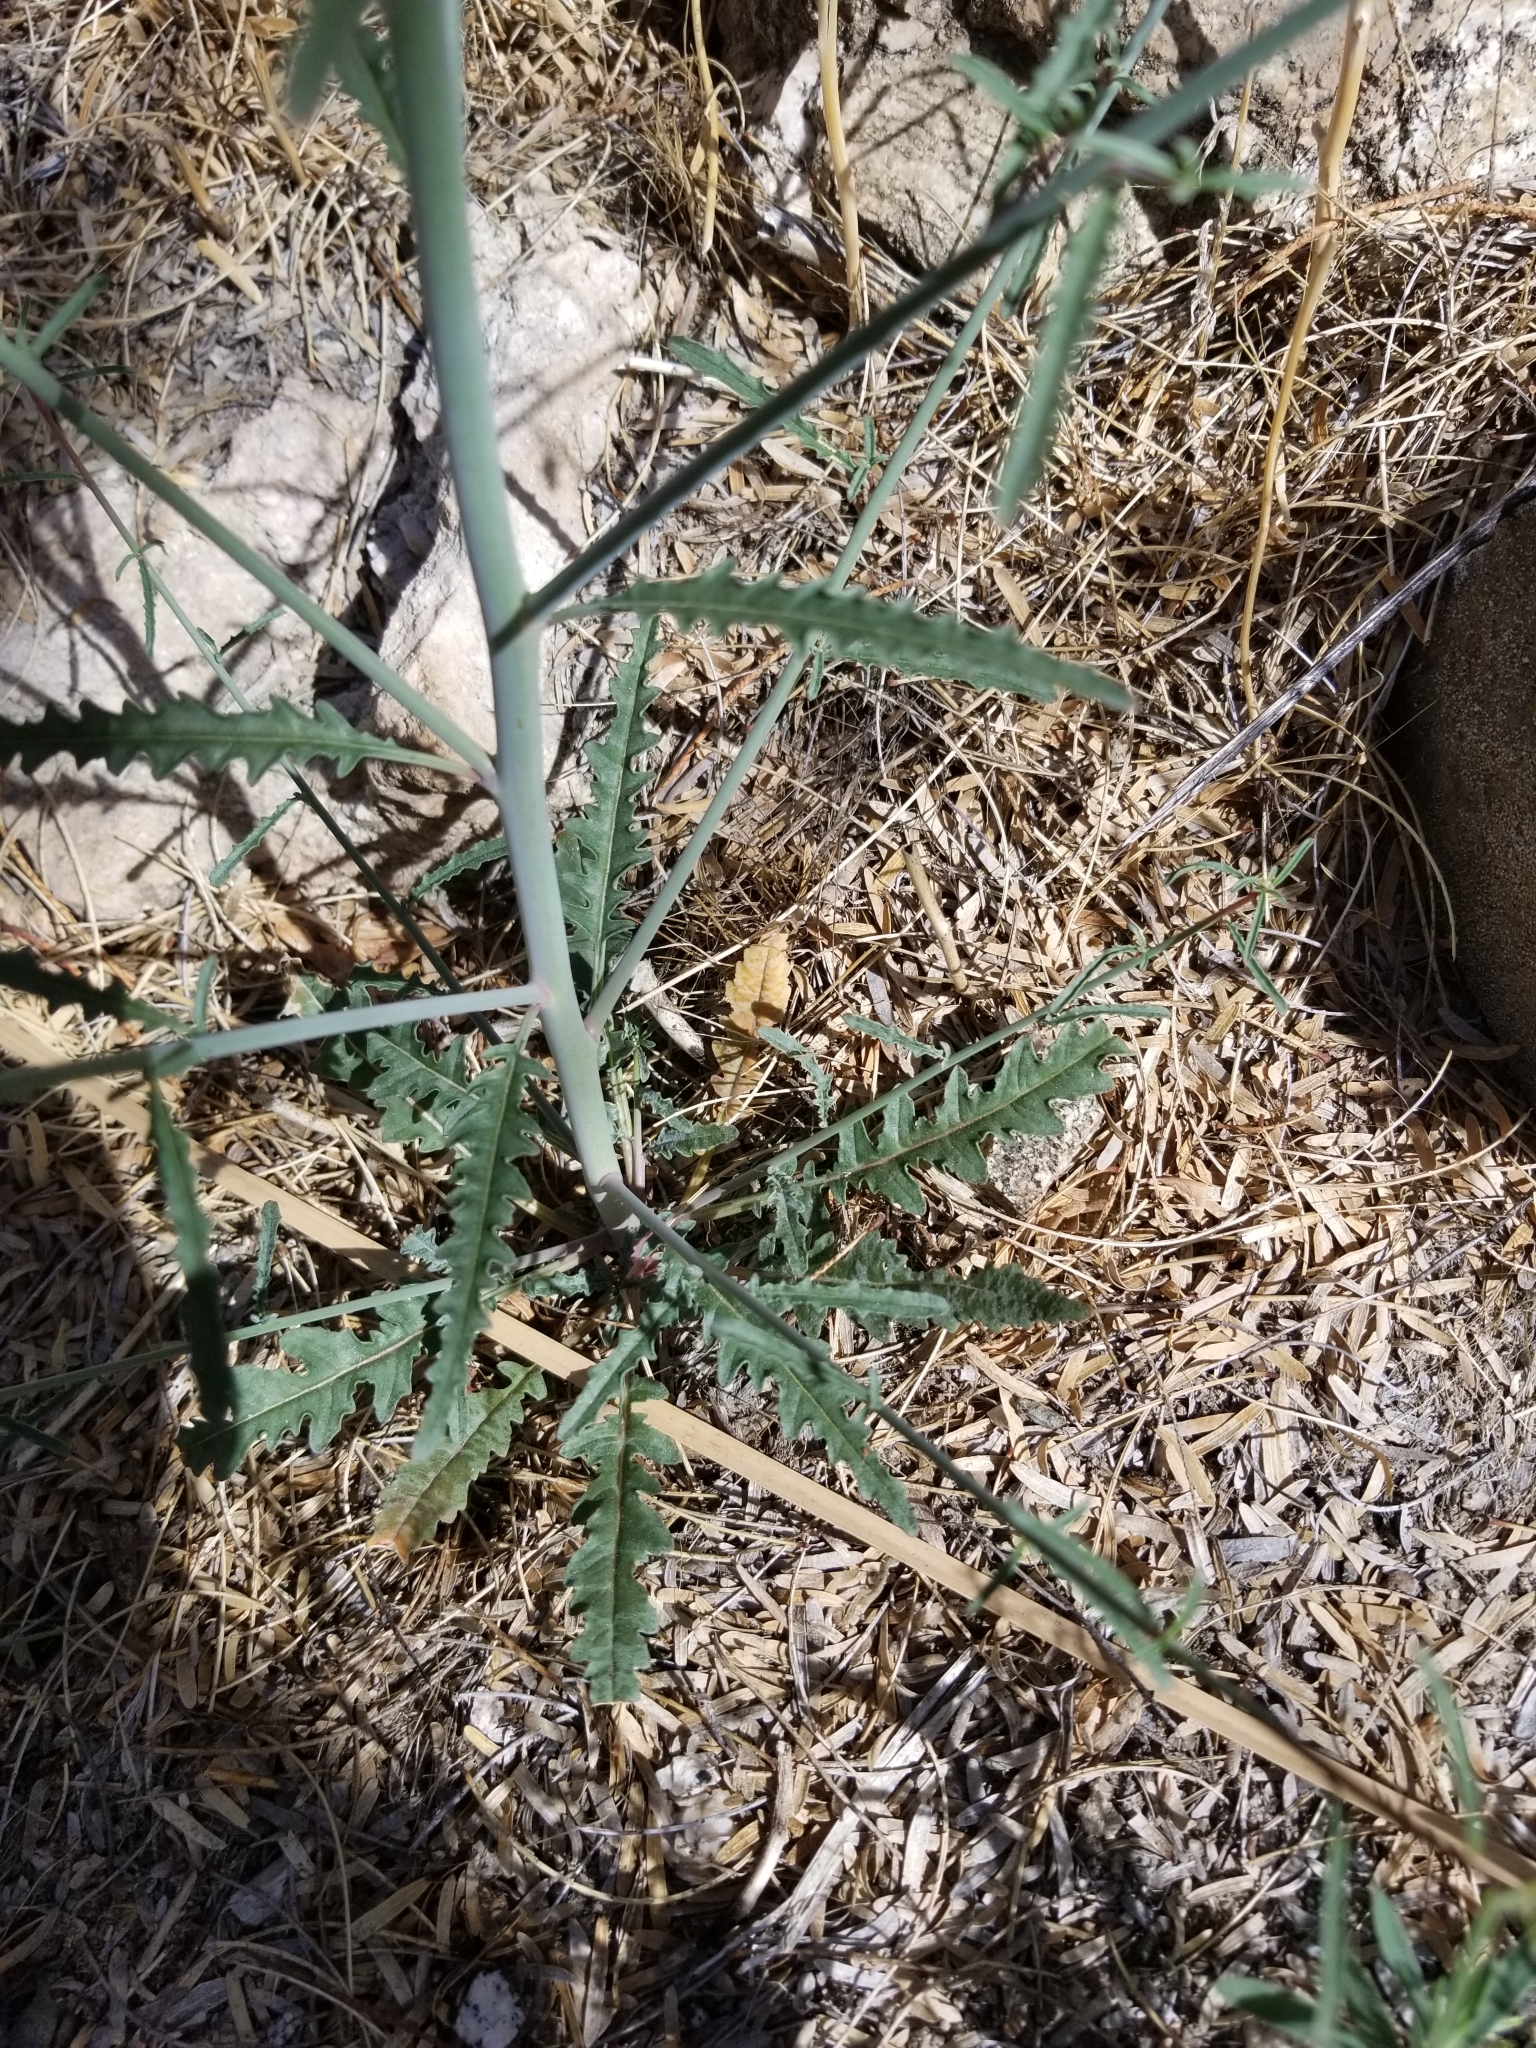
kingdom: Plantae
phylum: Tracheophyta
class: Magnoliopsida
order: Myrtales
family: Onagraceae
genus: Eulobus
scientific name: Eulobus californicus
